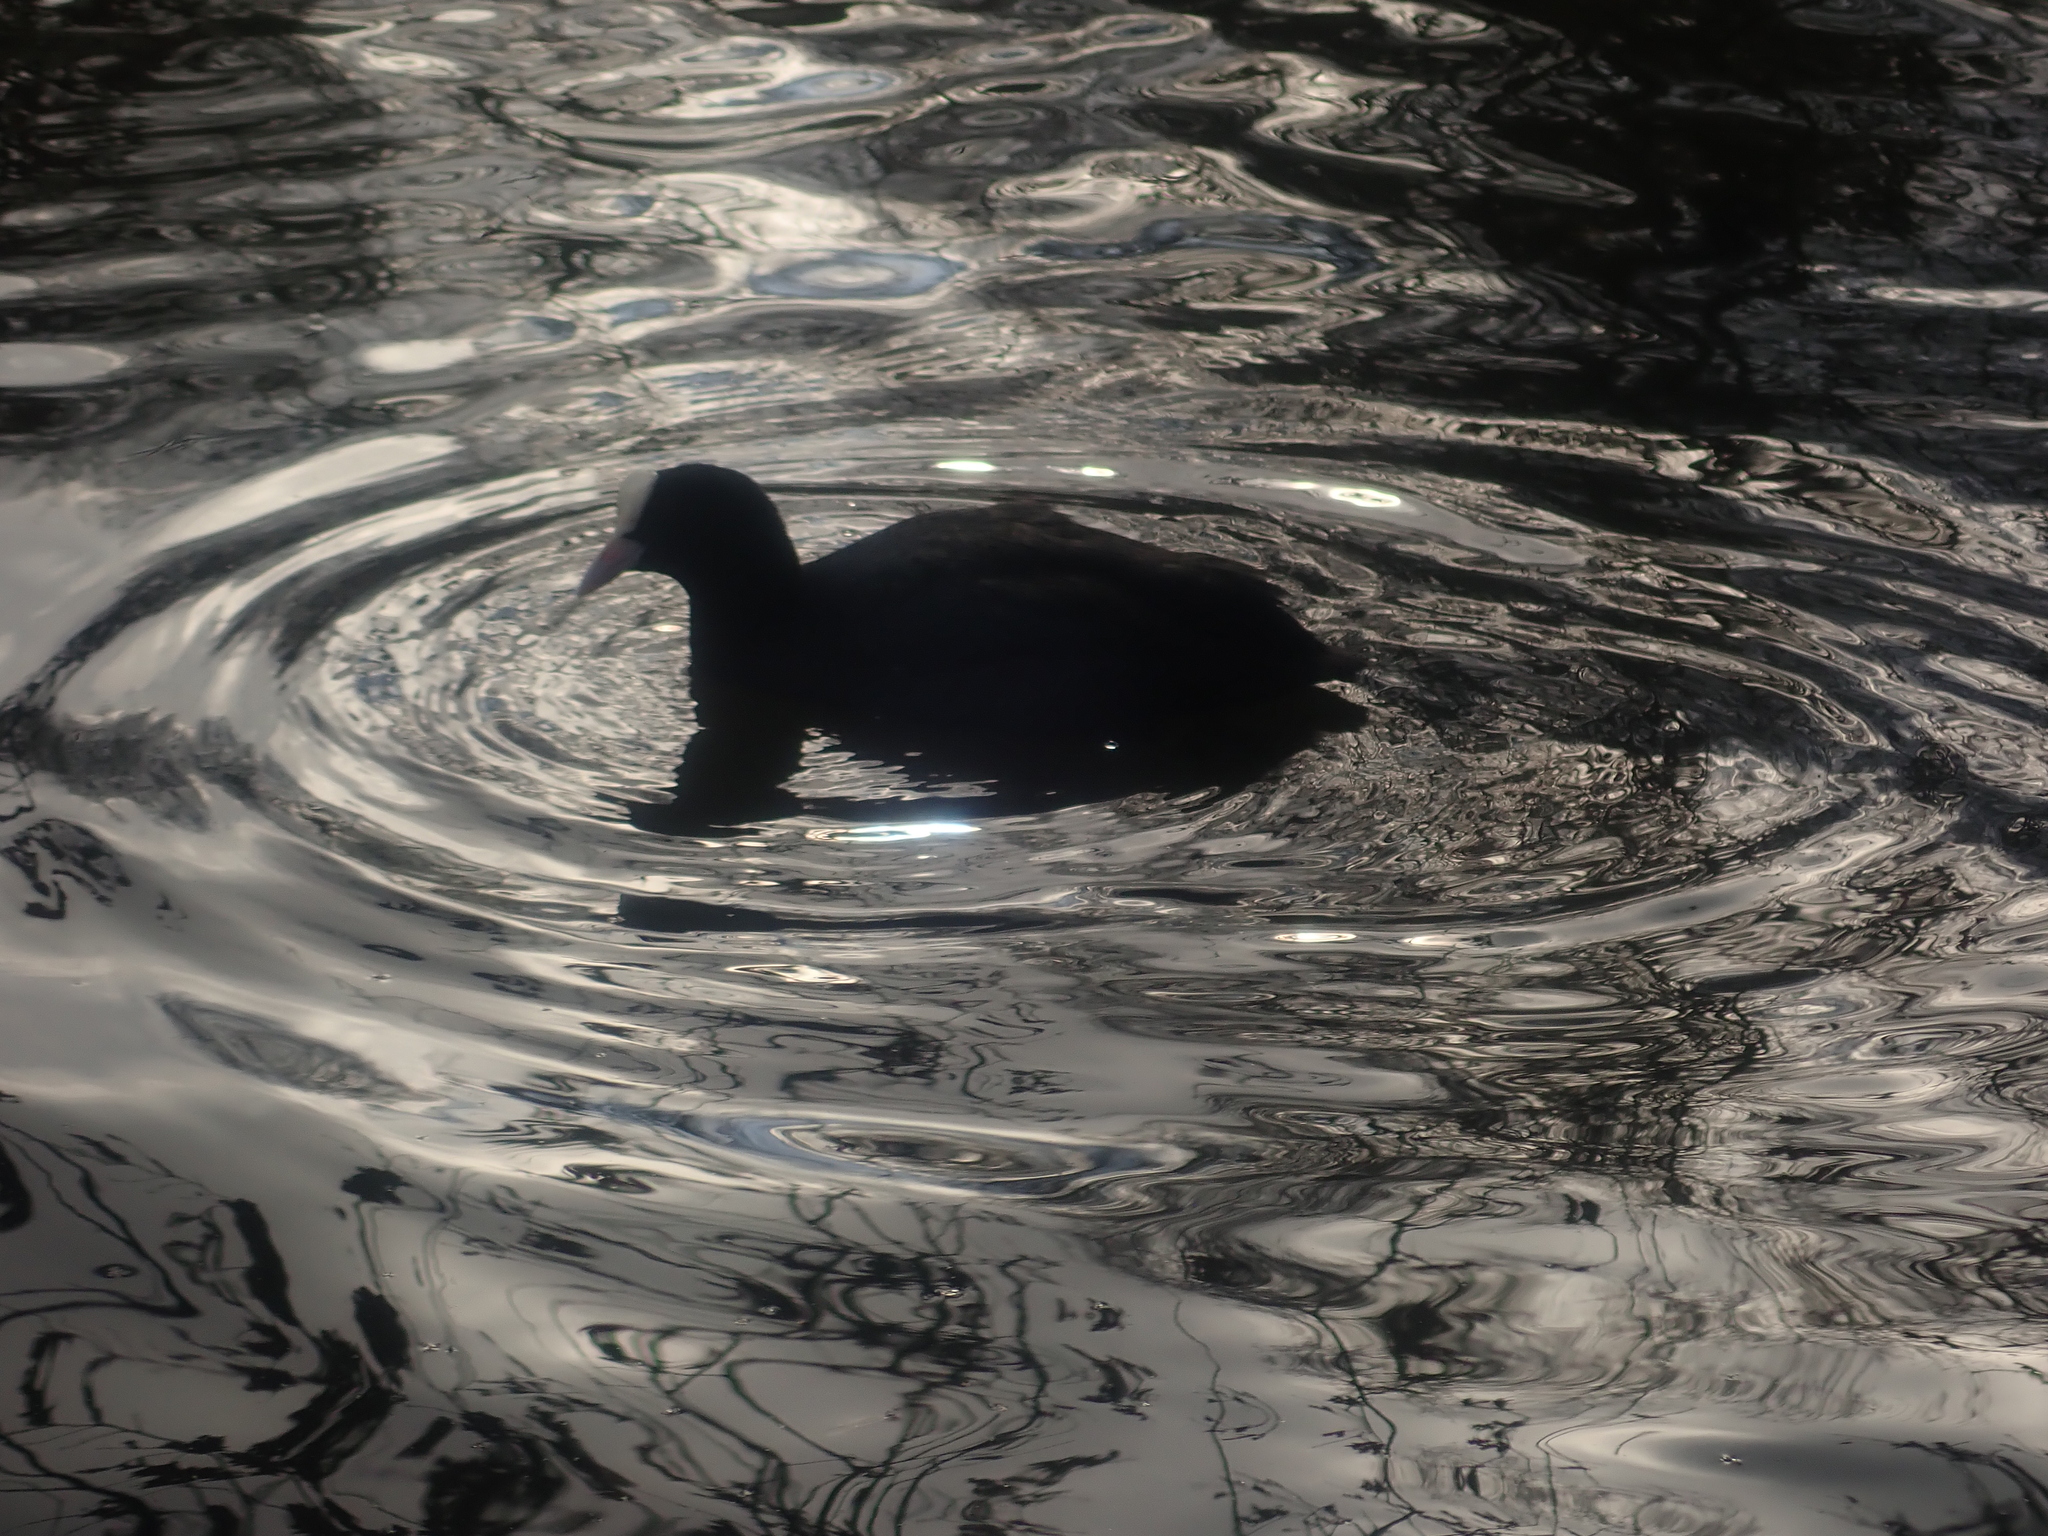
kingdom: Animalia
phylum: Chordata
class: Aves
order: Gruiformes
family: Rallidae
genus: Fulica
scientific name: Fulica atra
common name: Eurasian coot
